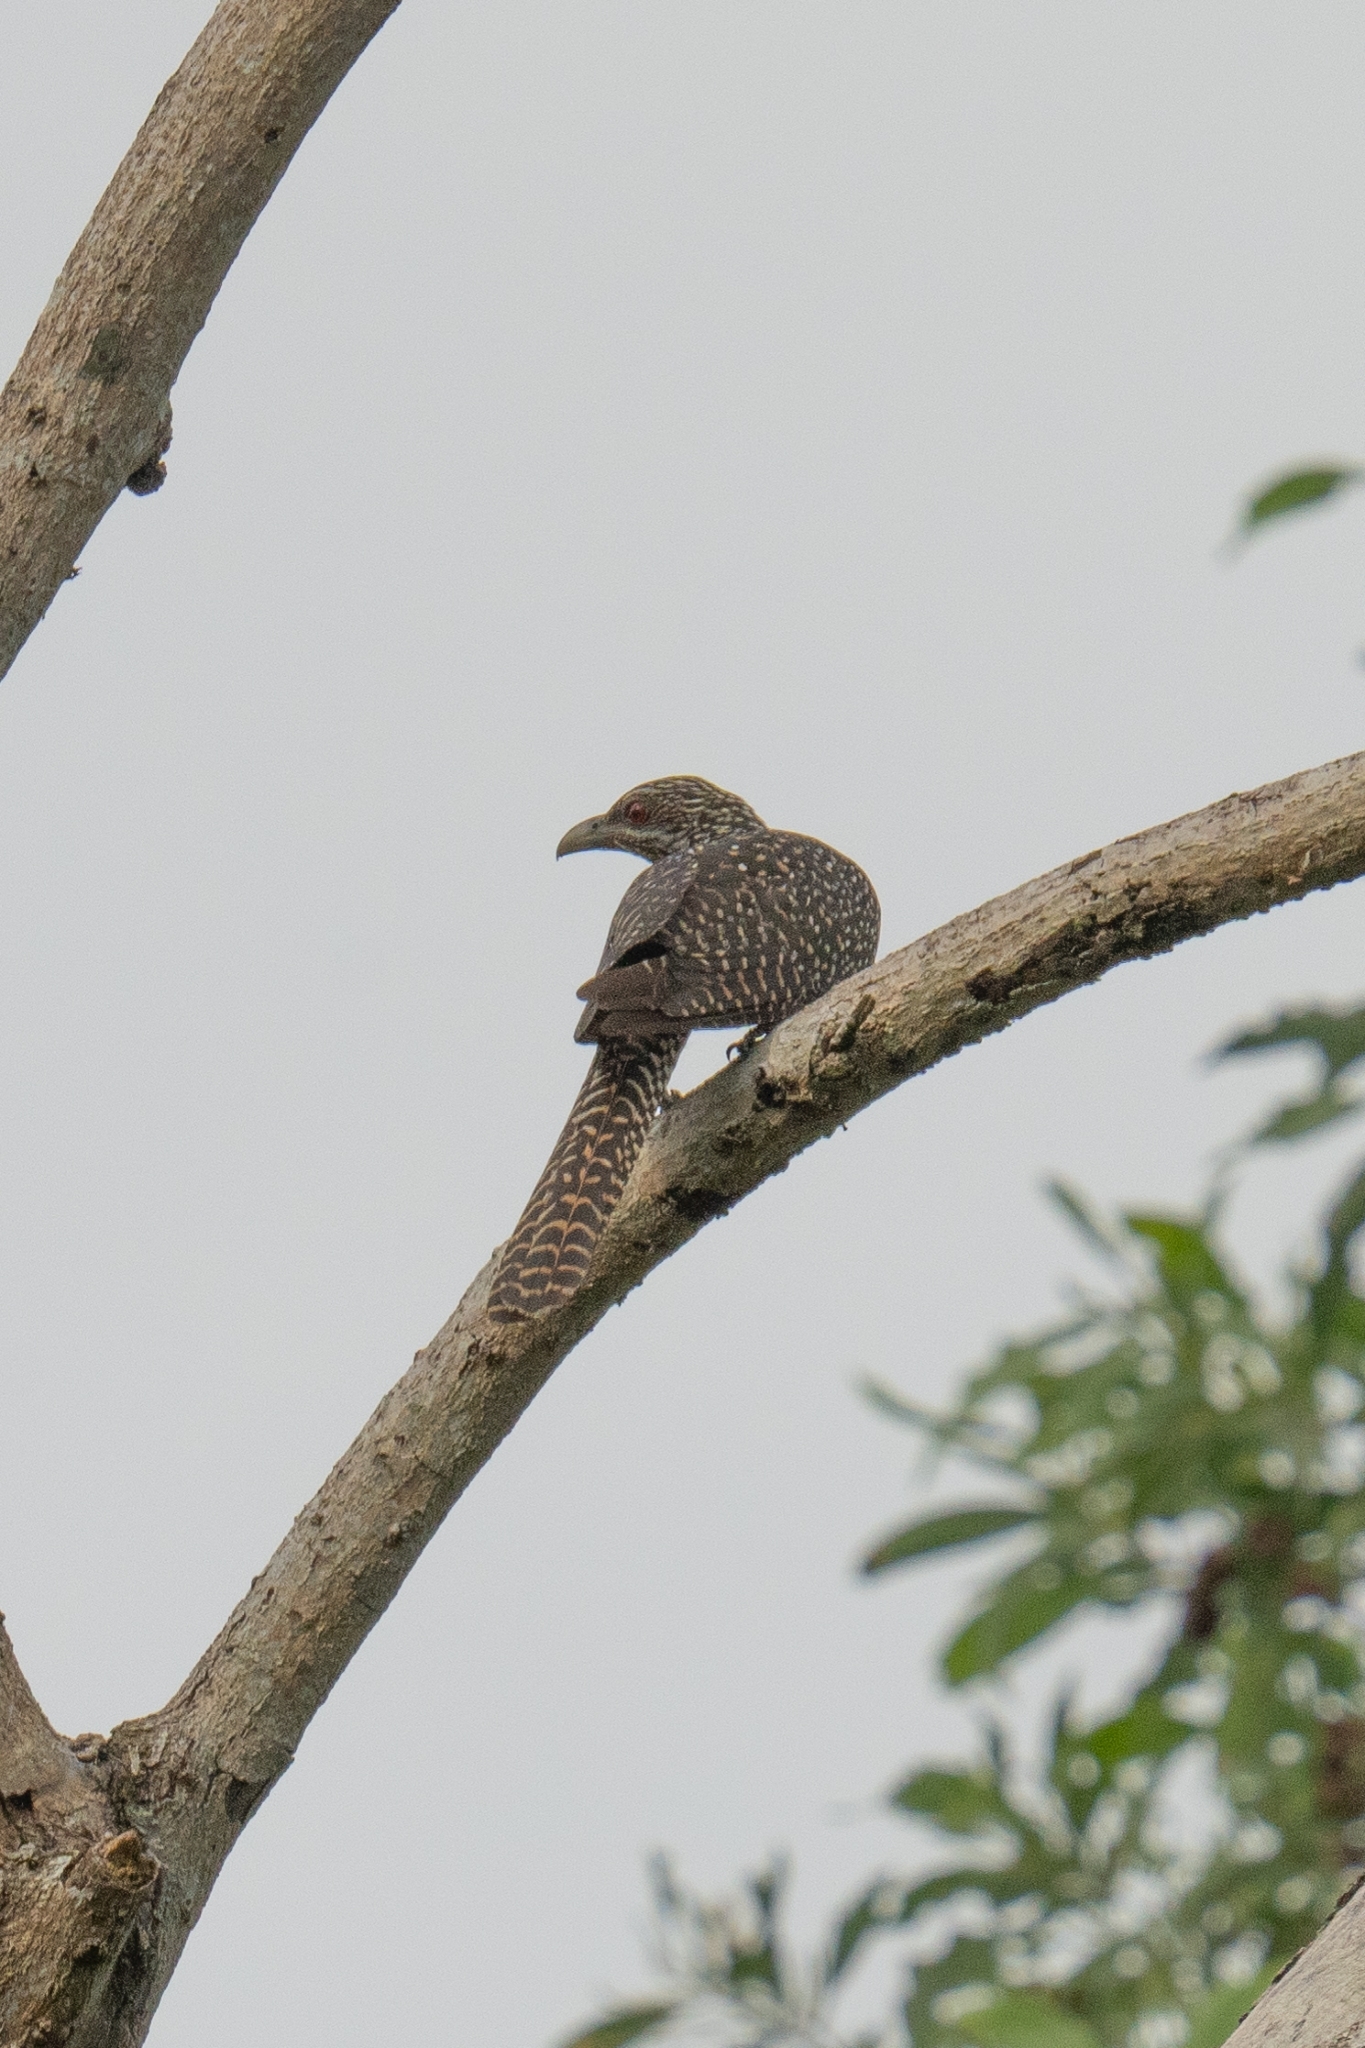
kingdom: Animalia
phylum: Chordata
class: Aves
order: Cuculiformes
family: Cuculidae
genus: Eudynamys
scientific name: Eudynamys scolopaceus
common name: Asian koel
